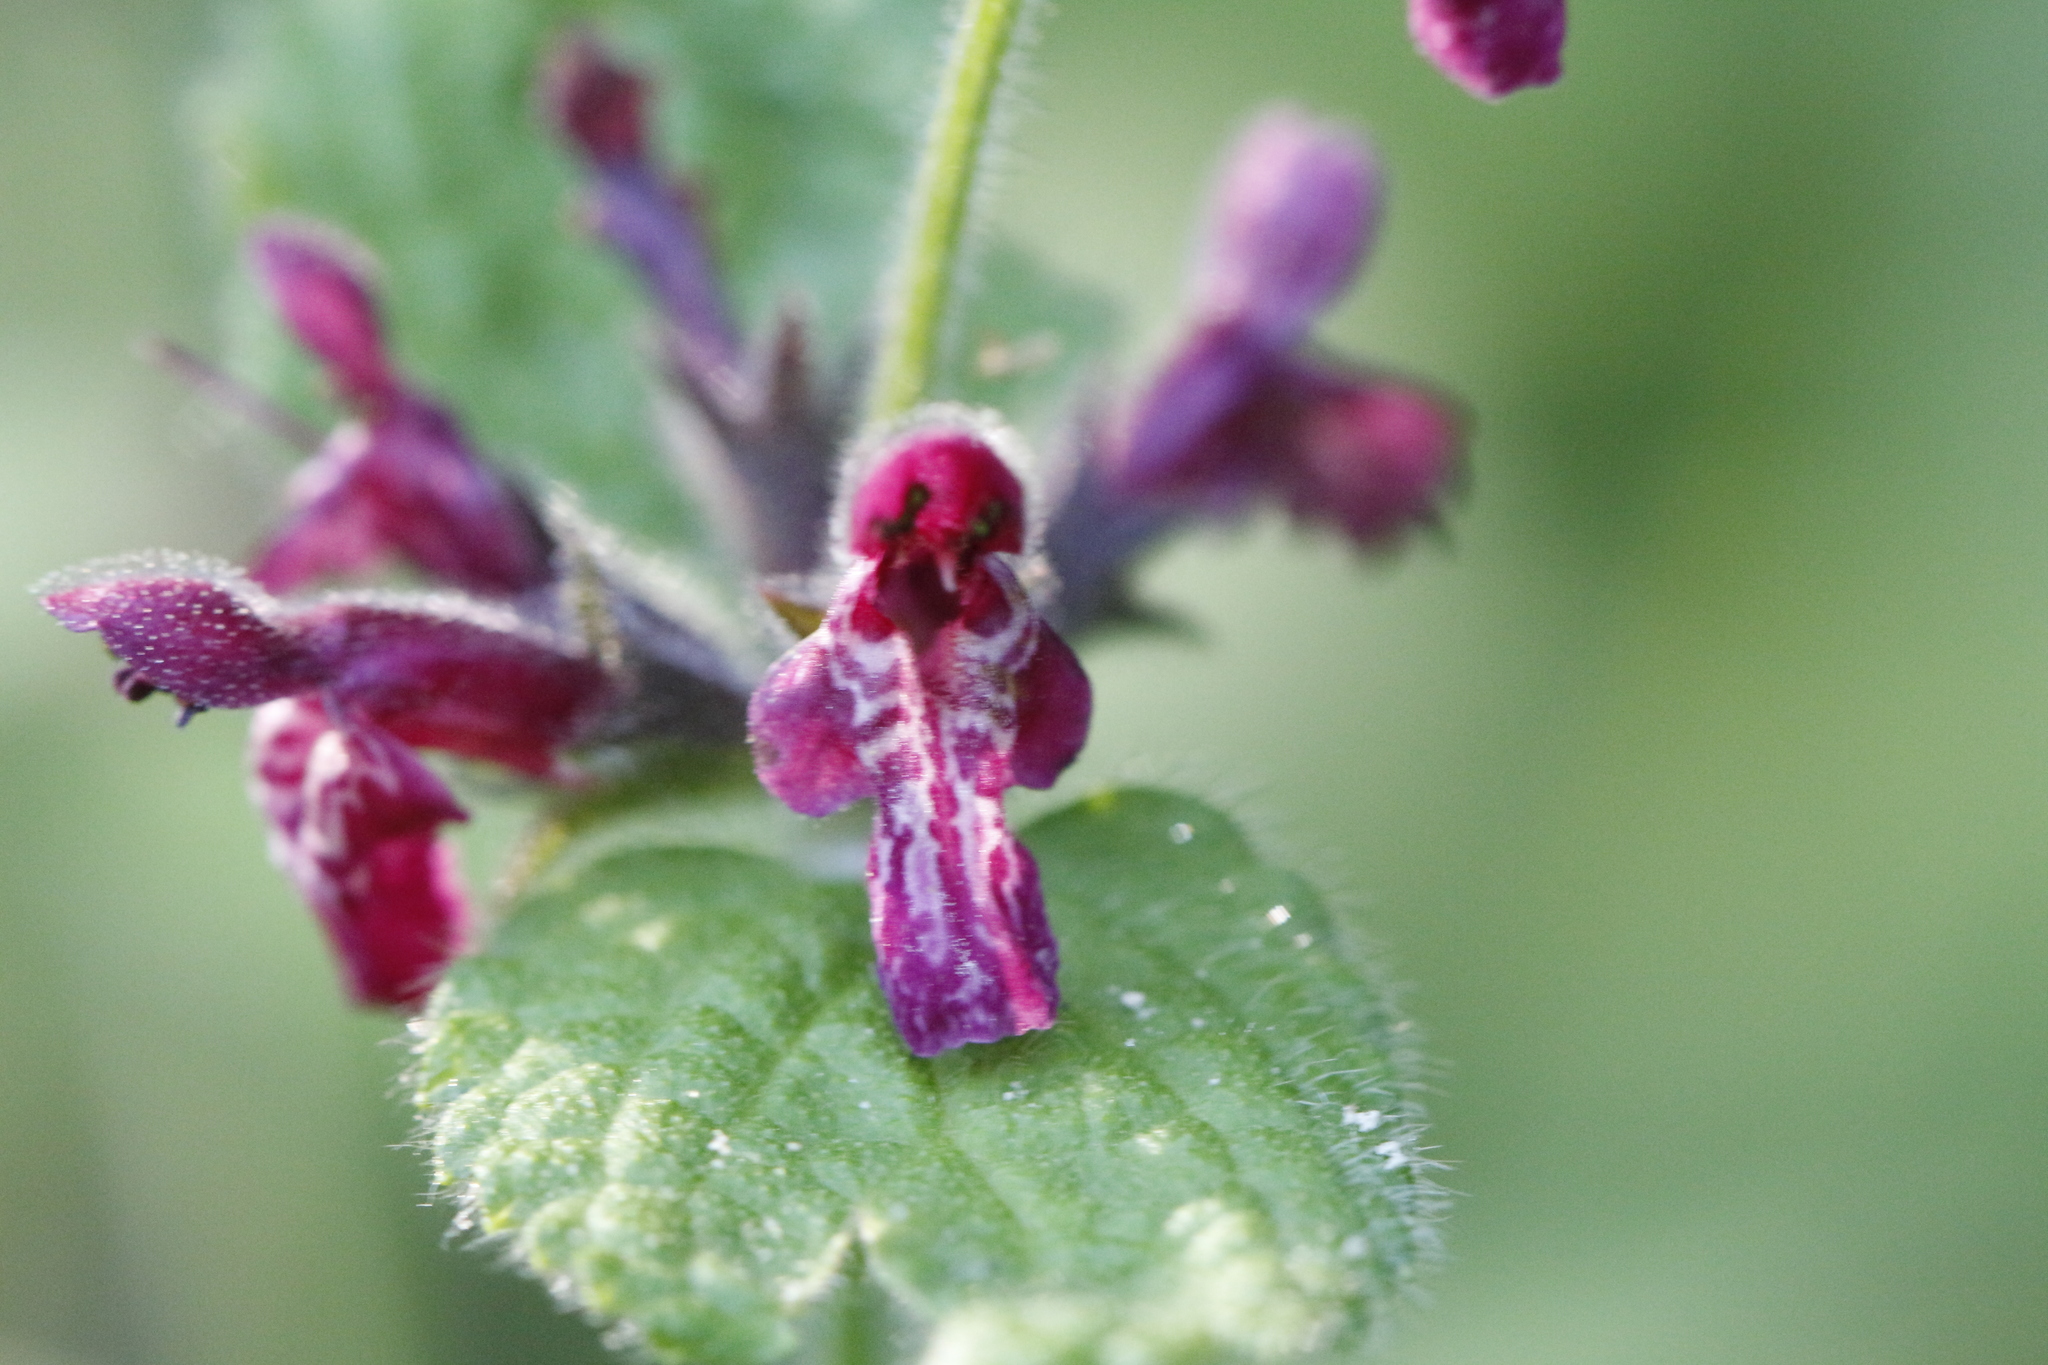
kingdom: Plantae
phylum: Tracheophyta
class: Magnoliopsida
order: Lamiales
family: Lamiaceae
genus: Stachys
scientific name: Stachys sylvatica
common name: Hedge woundwort
